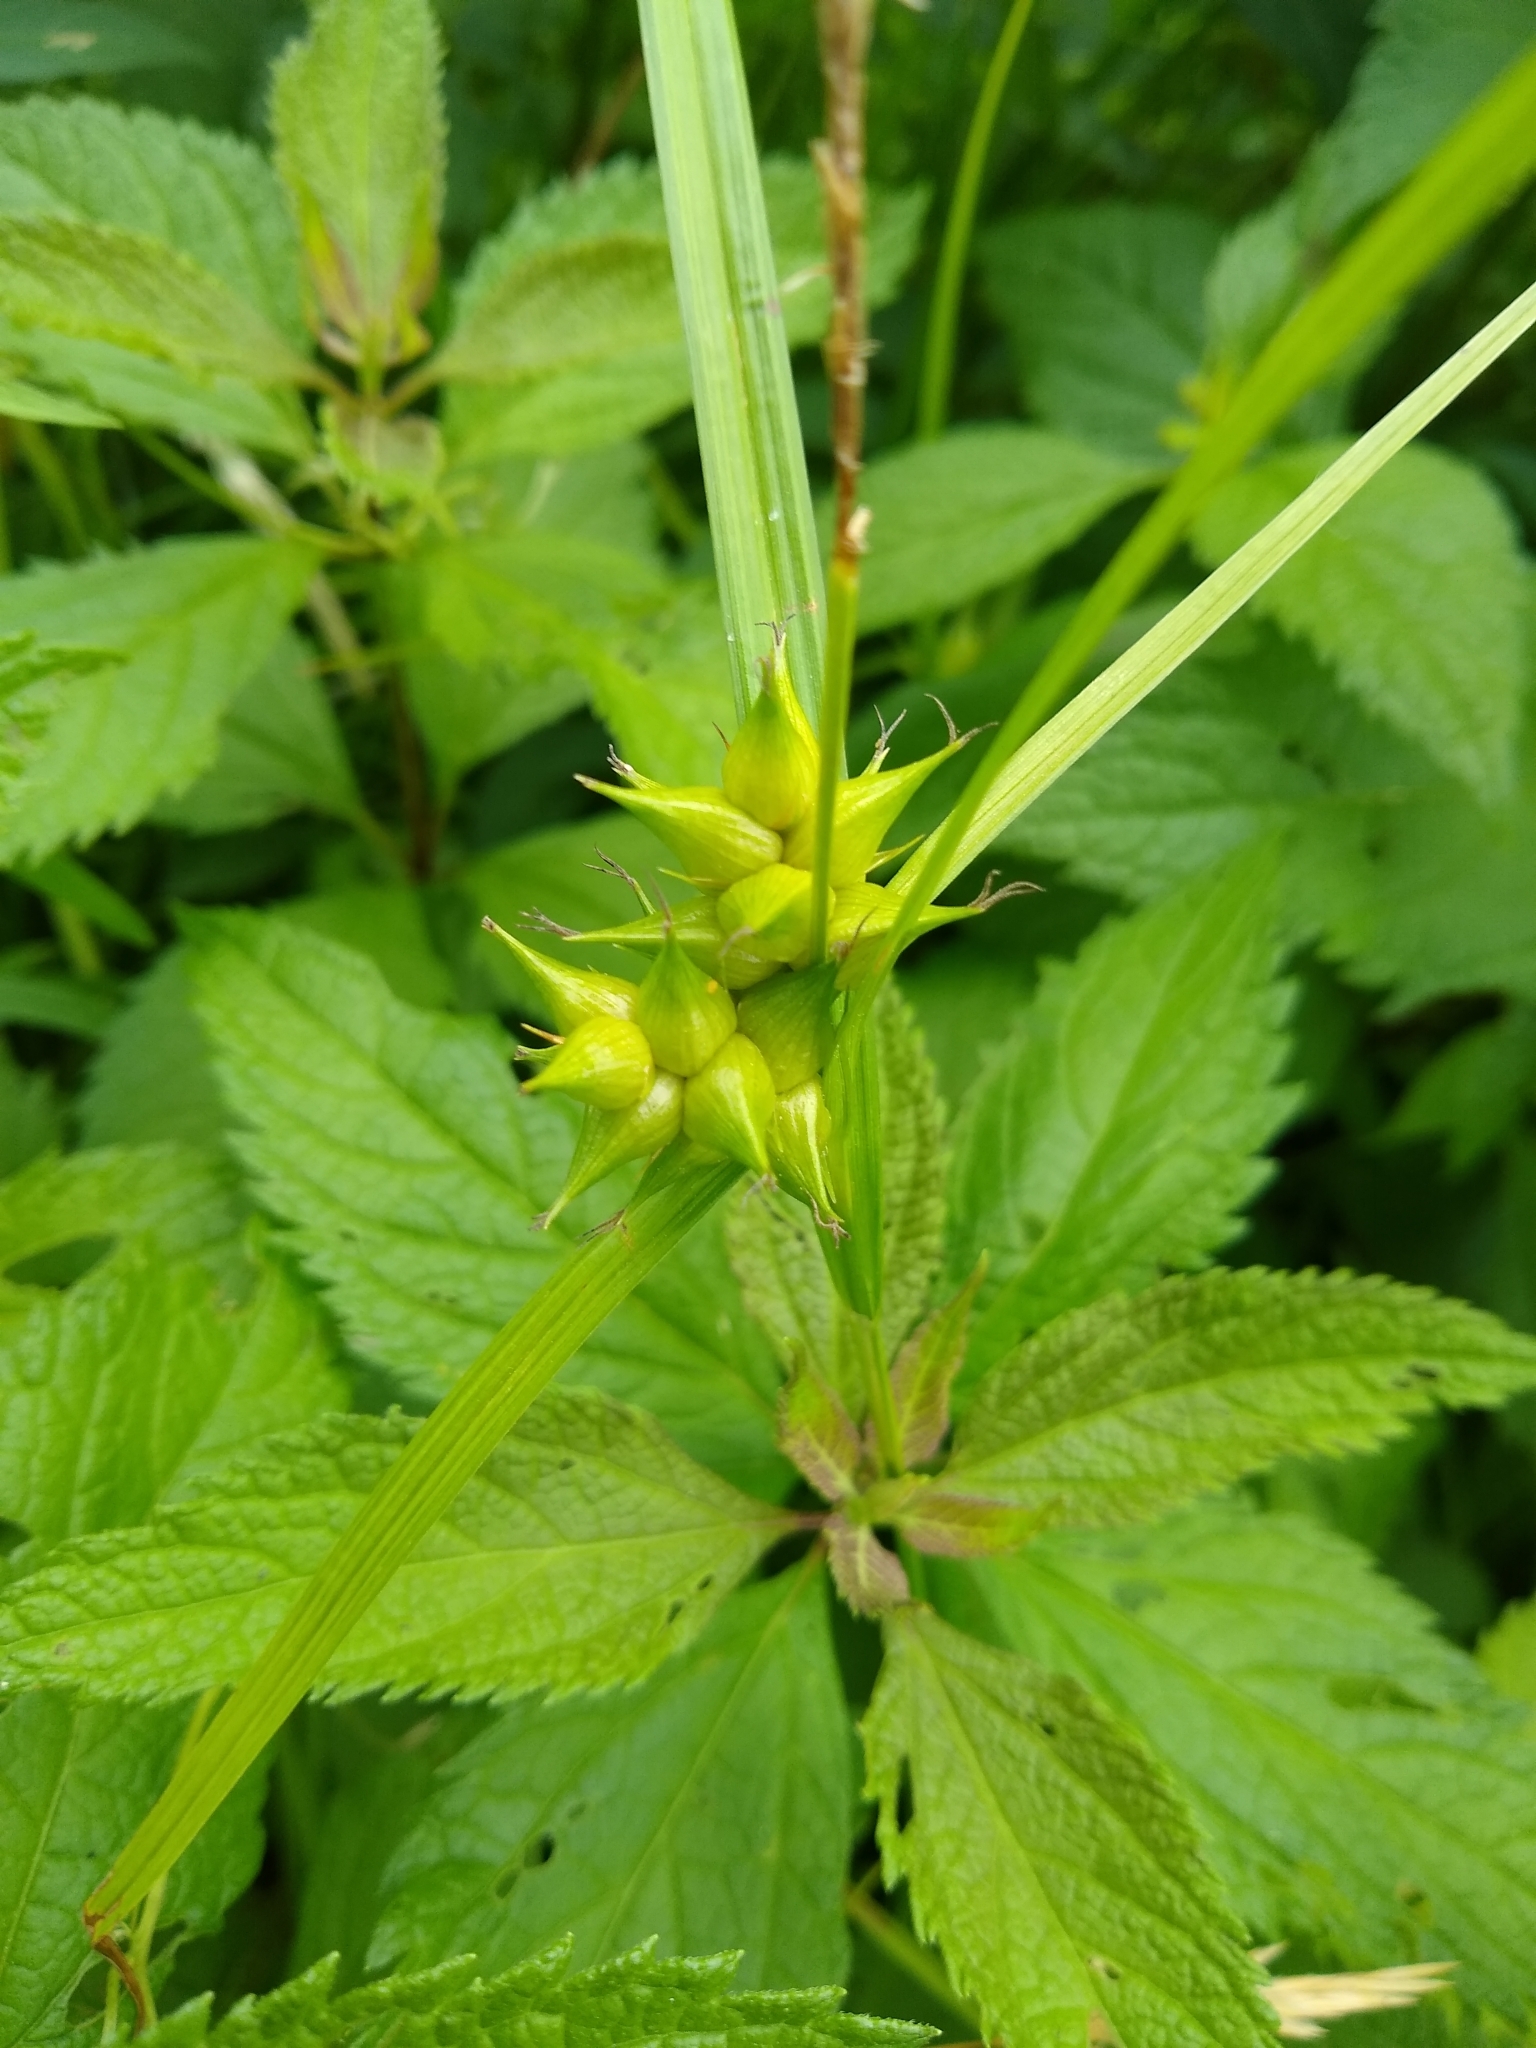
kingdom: Plantae
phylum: Tracheophyta
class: Liliopsida
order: Poales
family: Cyperaceae
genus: Carex
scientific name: Carex intumescens
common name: Greater bladder sedge
